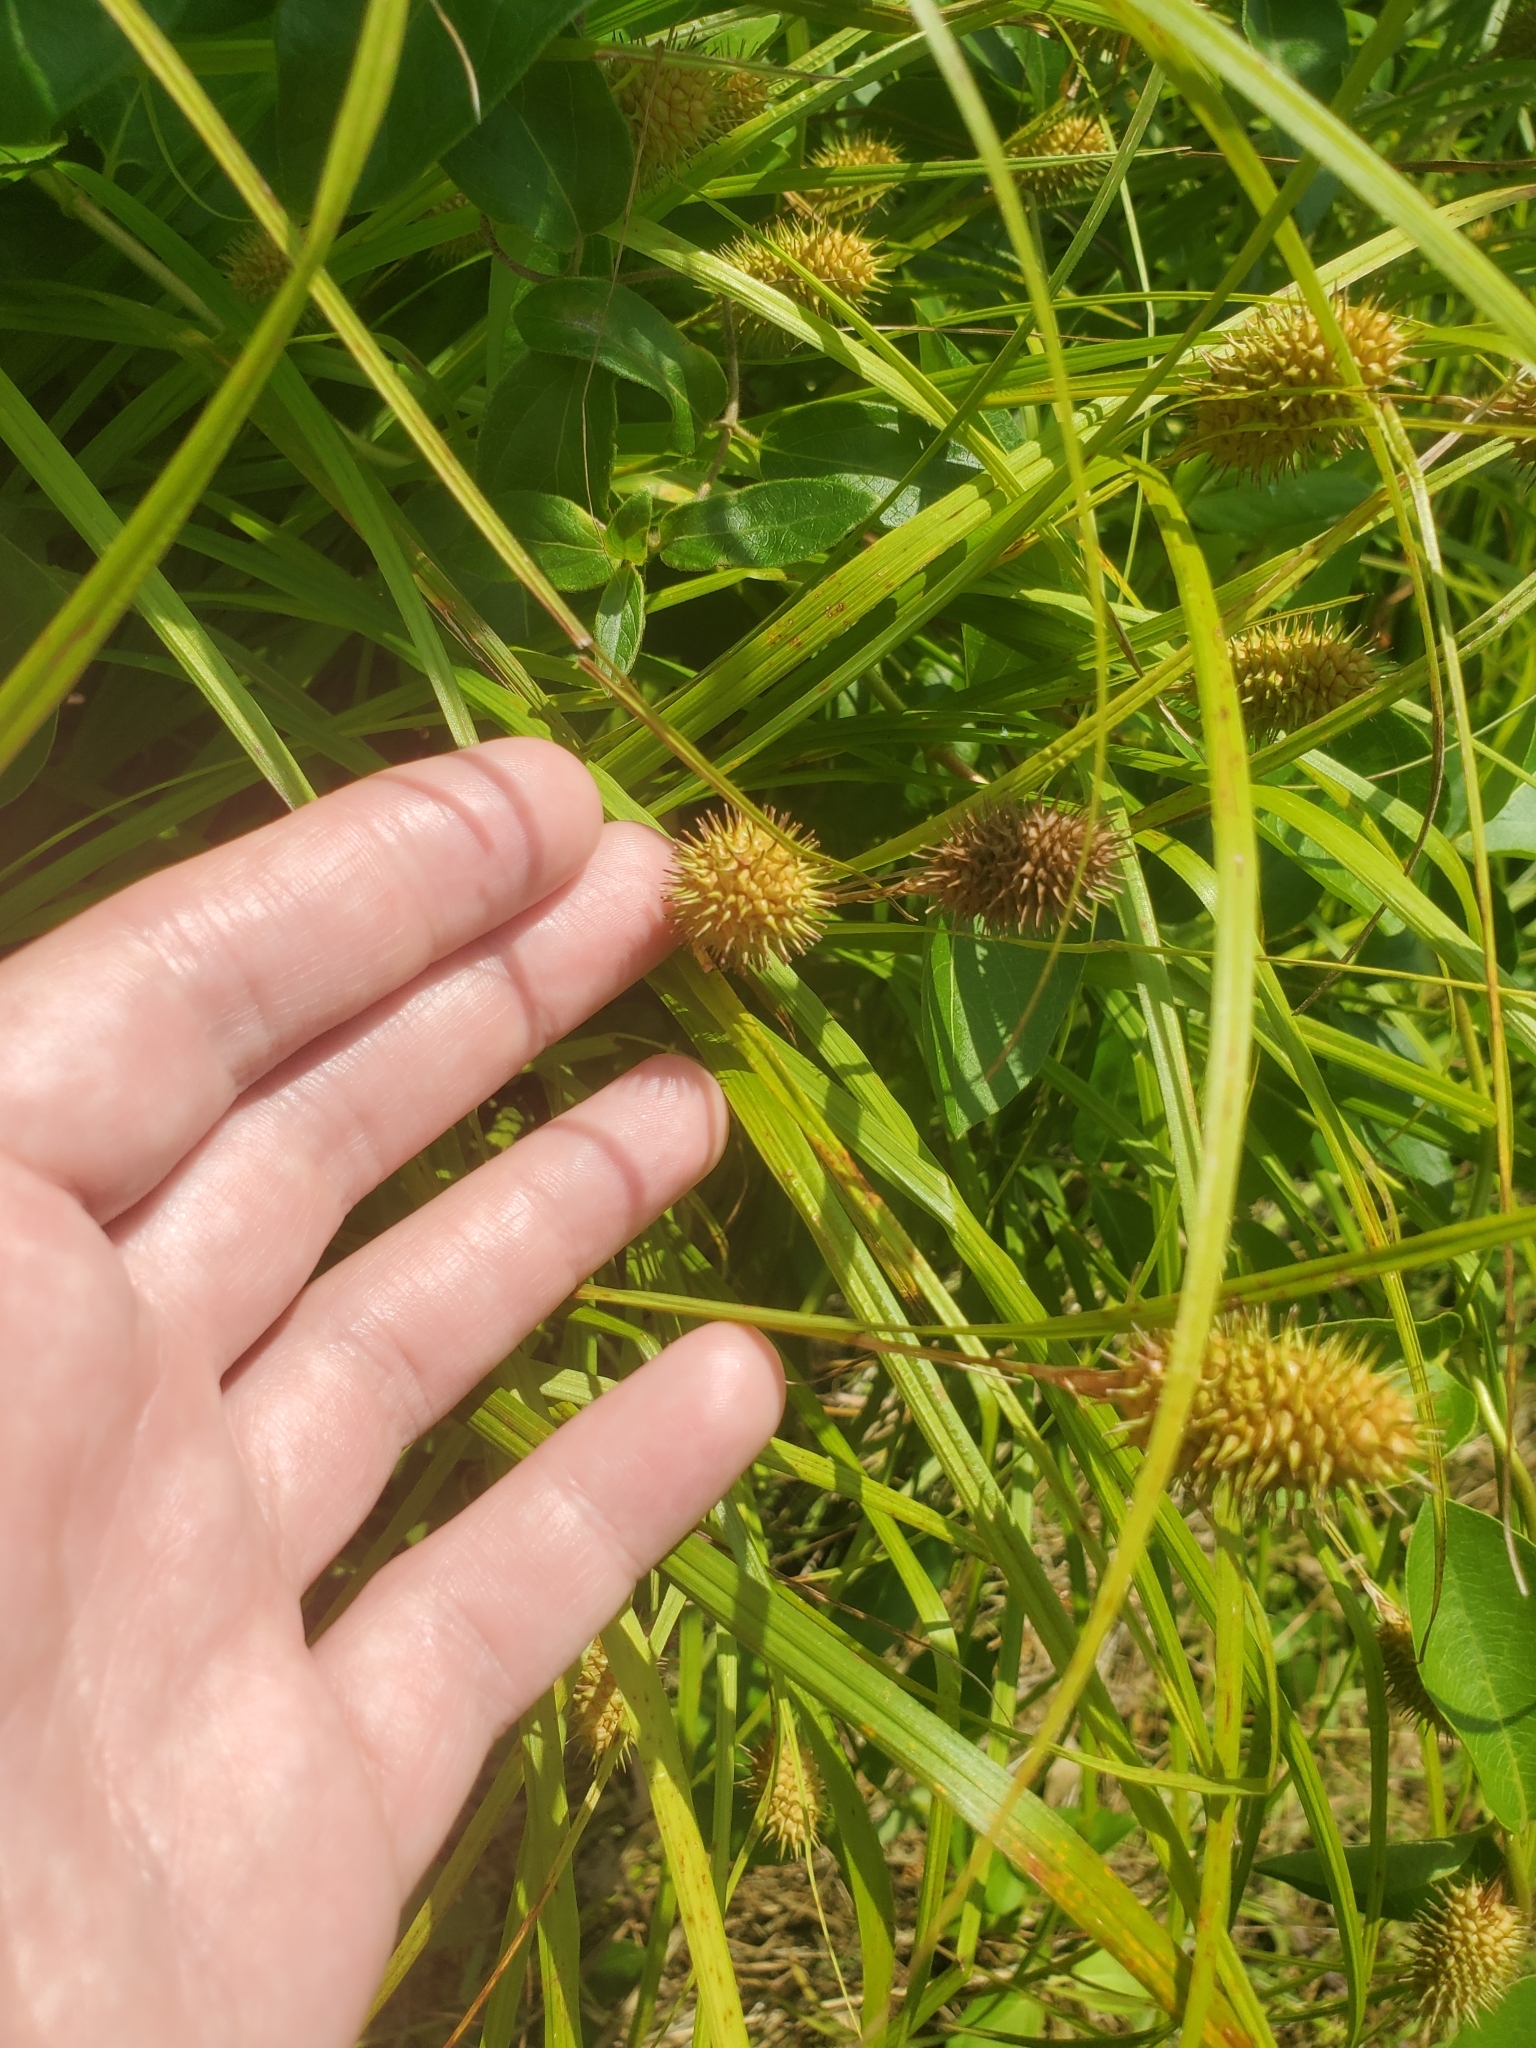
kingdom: Plantae
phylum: Tracheophyta
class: Liliopsida
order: Poales
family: Cyperaceae
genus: Carex
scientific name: Carex squarrosa
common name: Narrow-leaved cattail sedge
